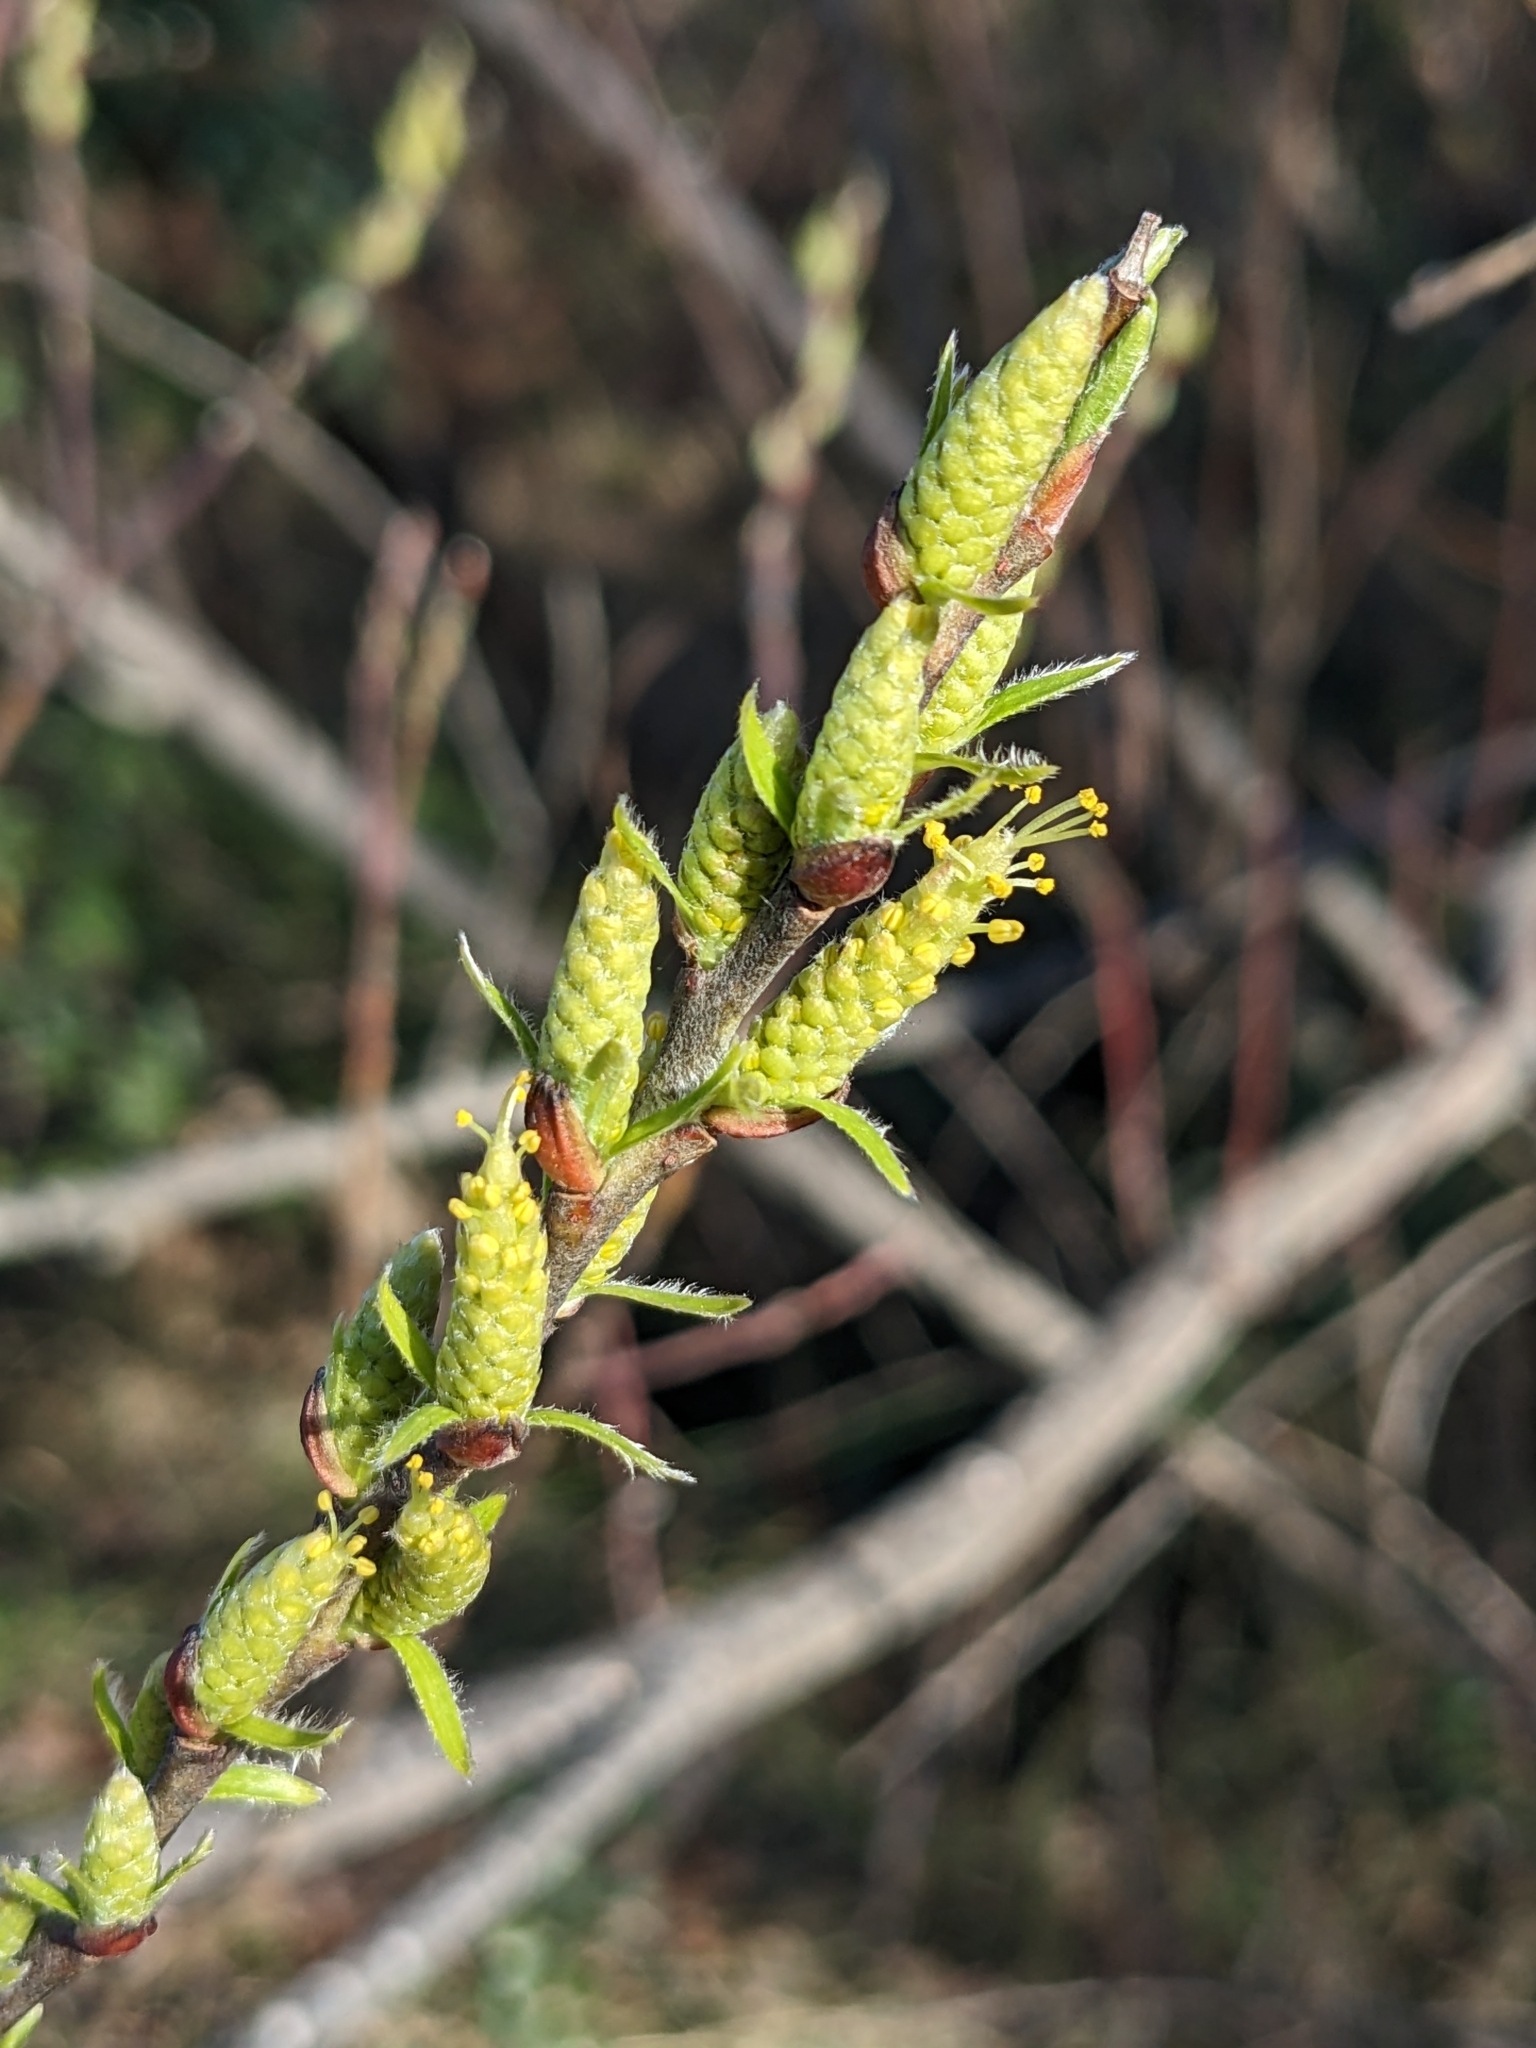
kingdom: Plantae
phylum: Tracheophyta
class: Magnoliopsida
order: Malpighiales
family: Salicaceae
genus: Salix
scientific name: Salix eleagnos
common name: Elaeagnus willow
